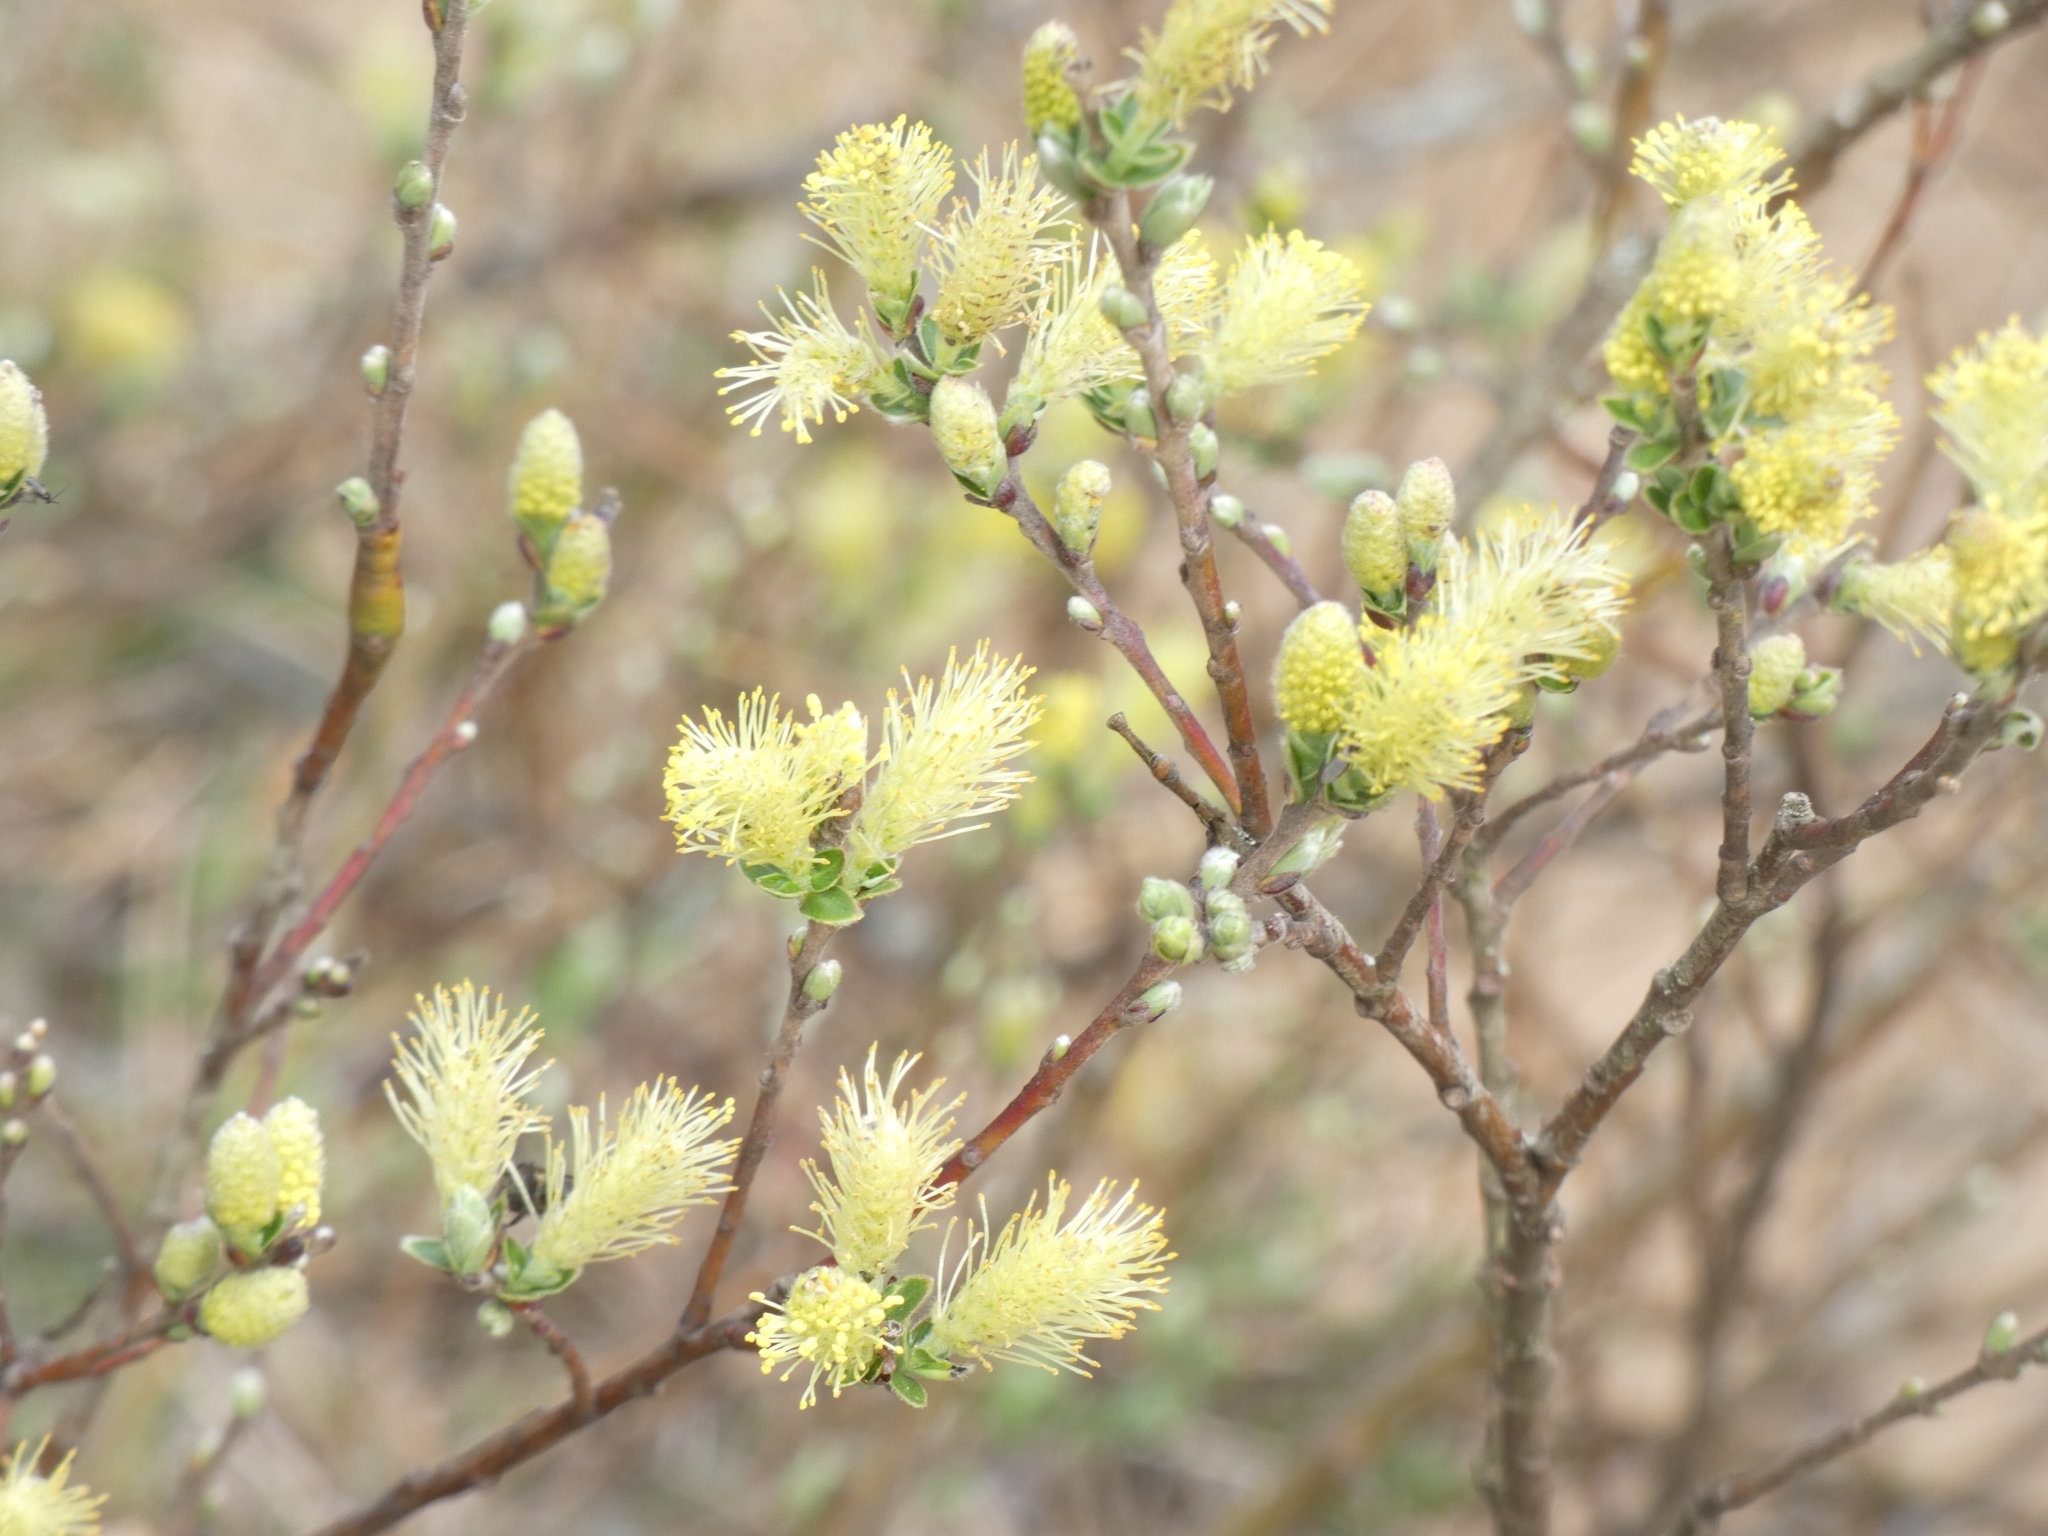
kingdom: Plantae
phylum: Tracheophyta
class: Magnoliopsida
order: Malpighiales
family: Salicaceae
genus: Salix
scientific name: Salix repens
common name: Creeping willow
